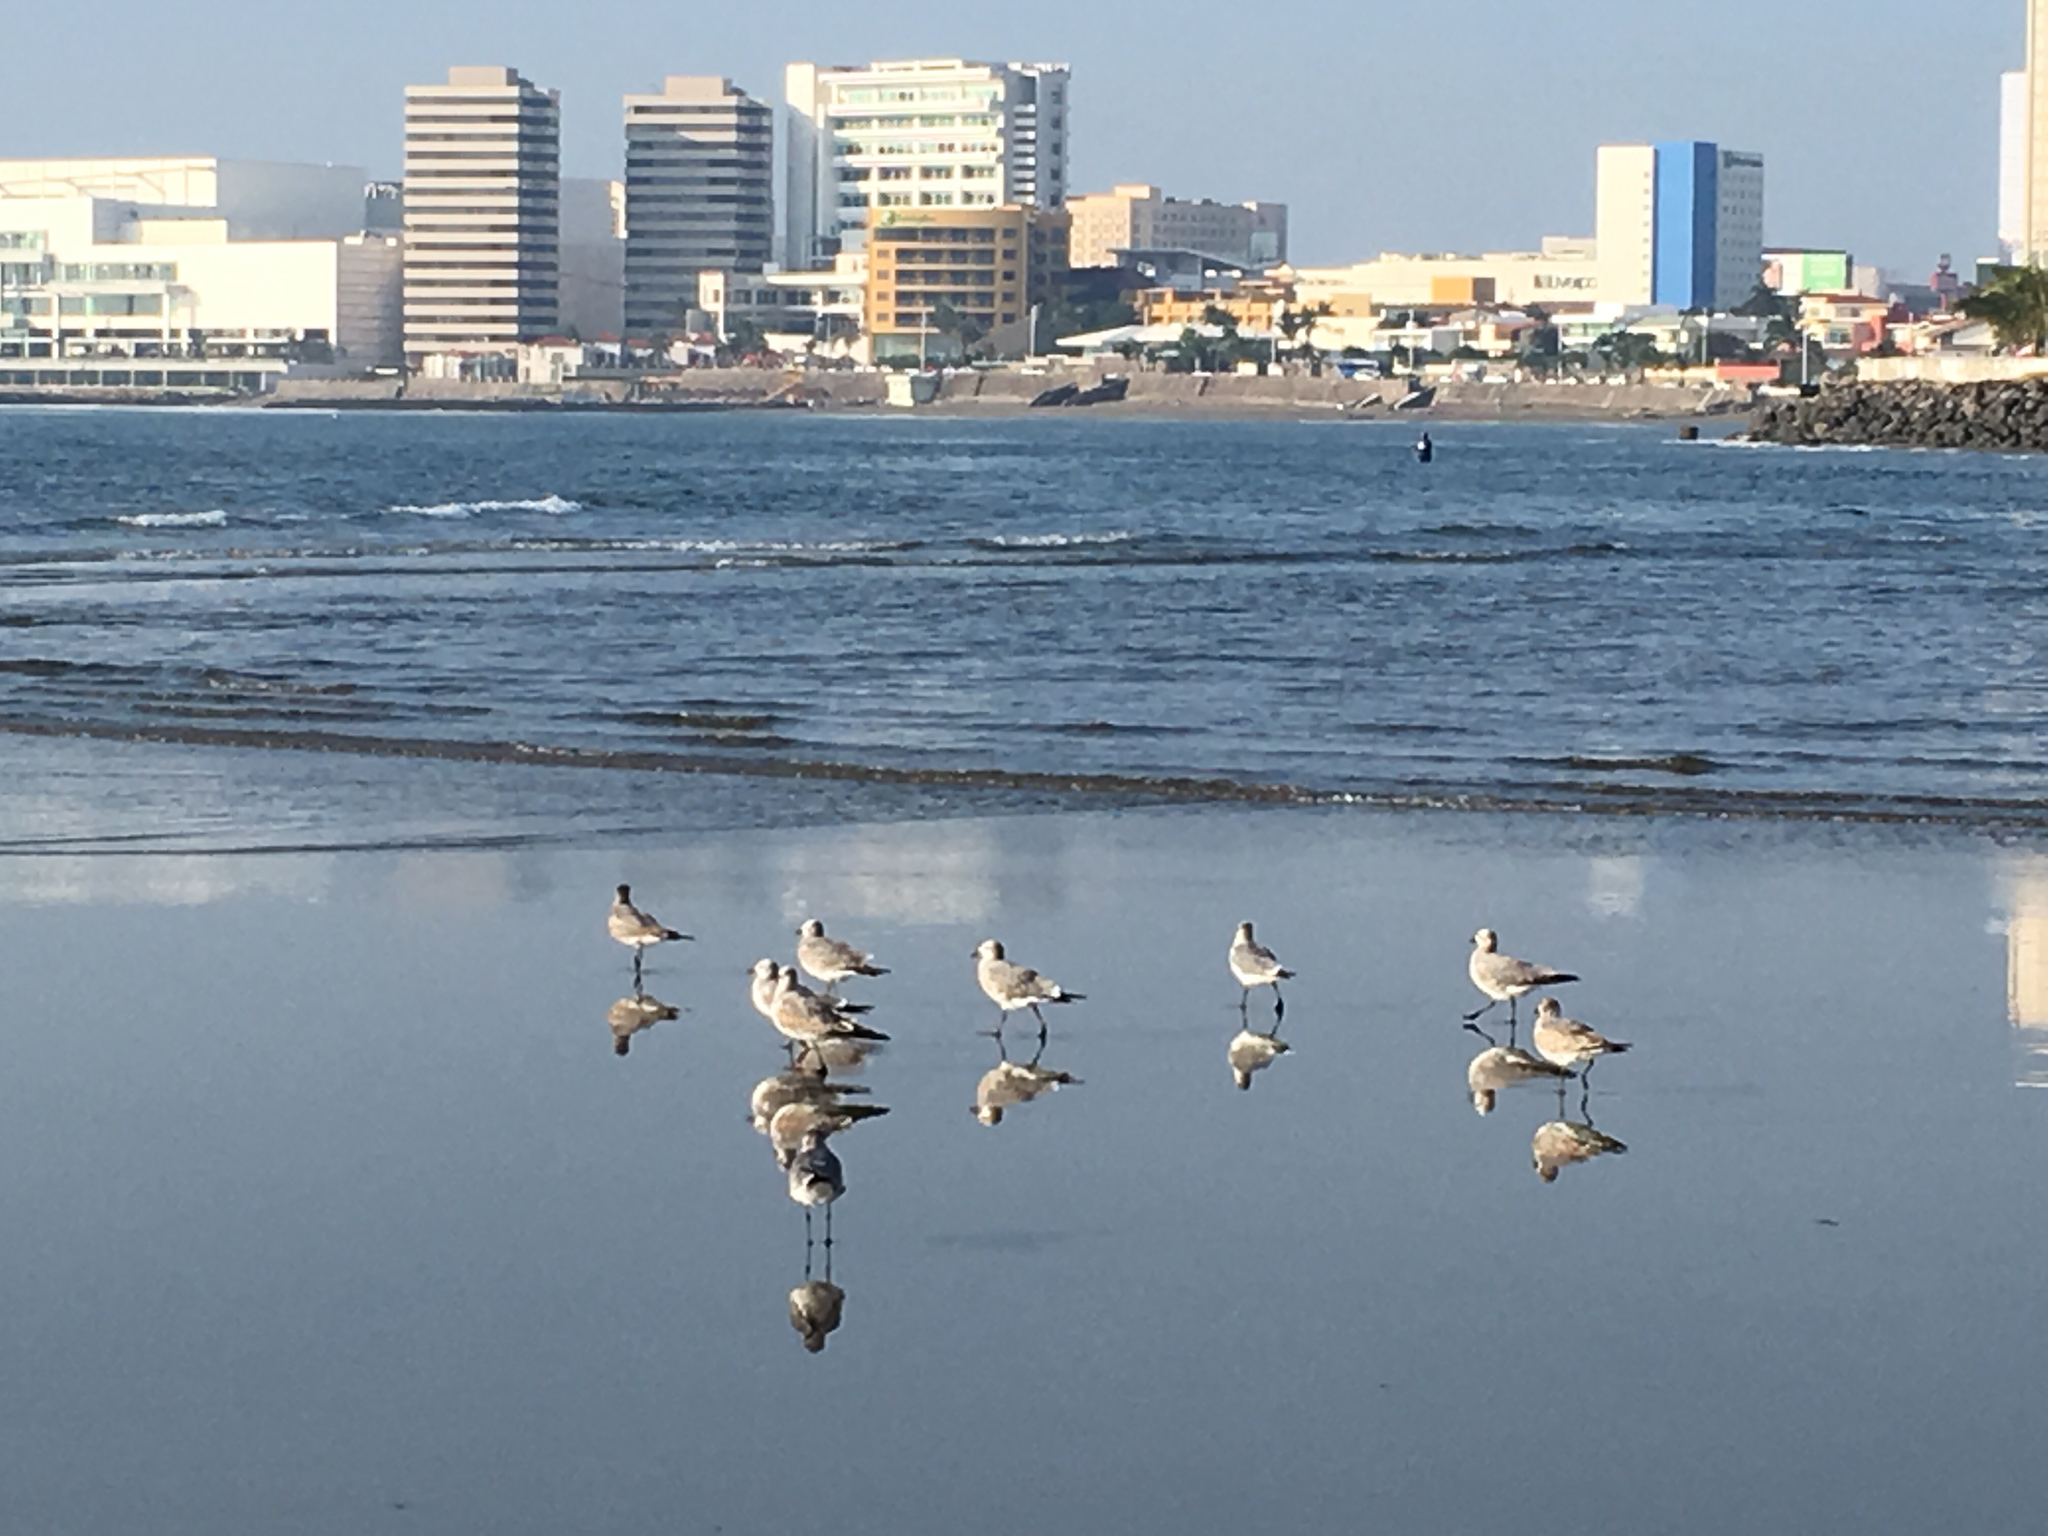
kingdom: Animalia
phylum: Chordata
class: Aves
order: Charadriiformes
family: Laridae
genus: Leucophaeus
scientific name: Leucophaeus atricilla
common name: Laughing gull
